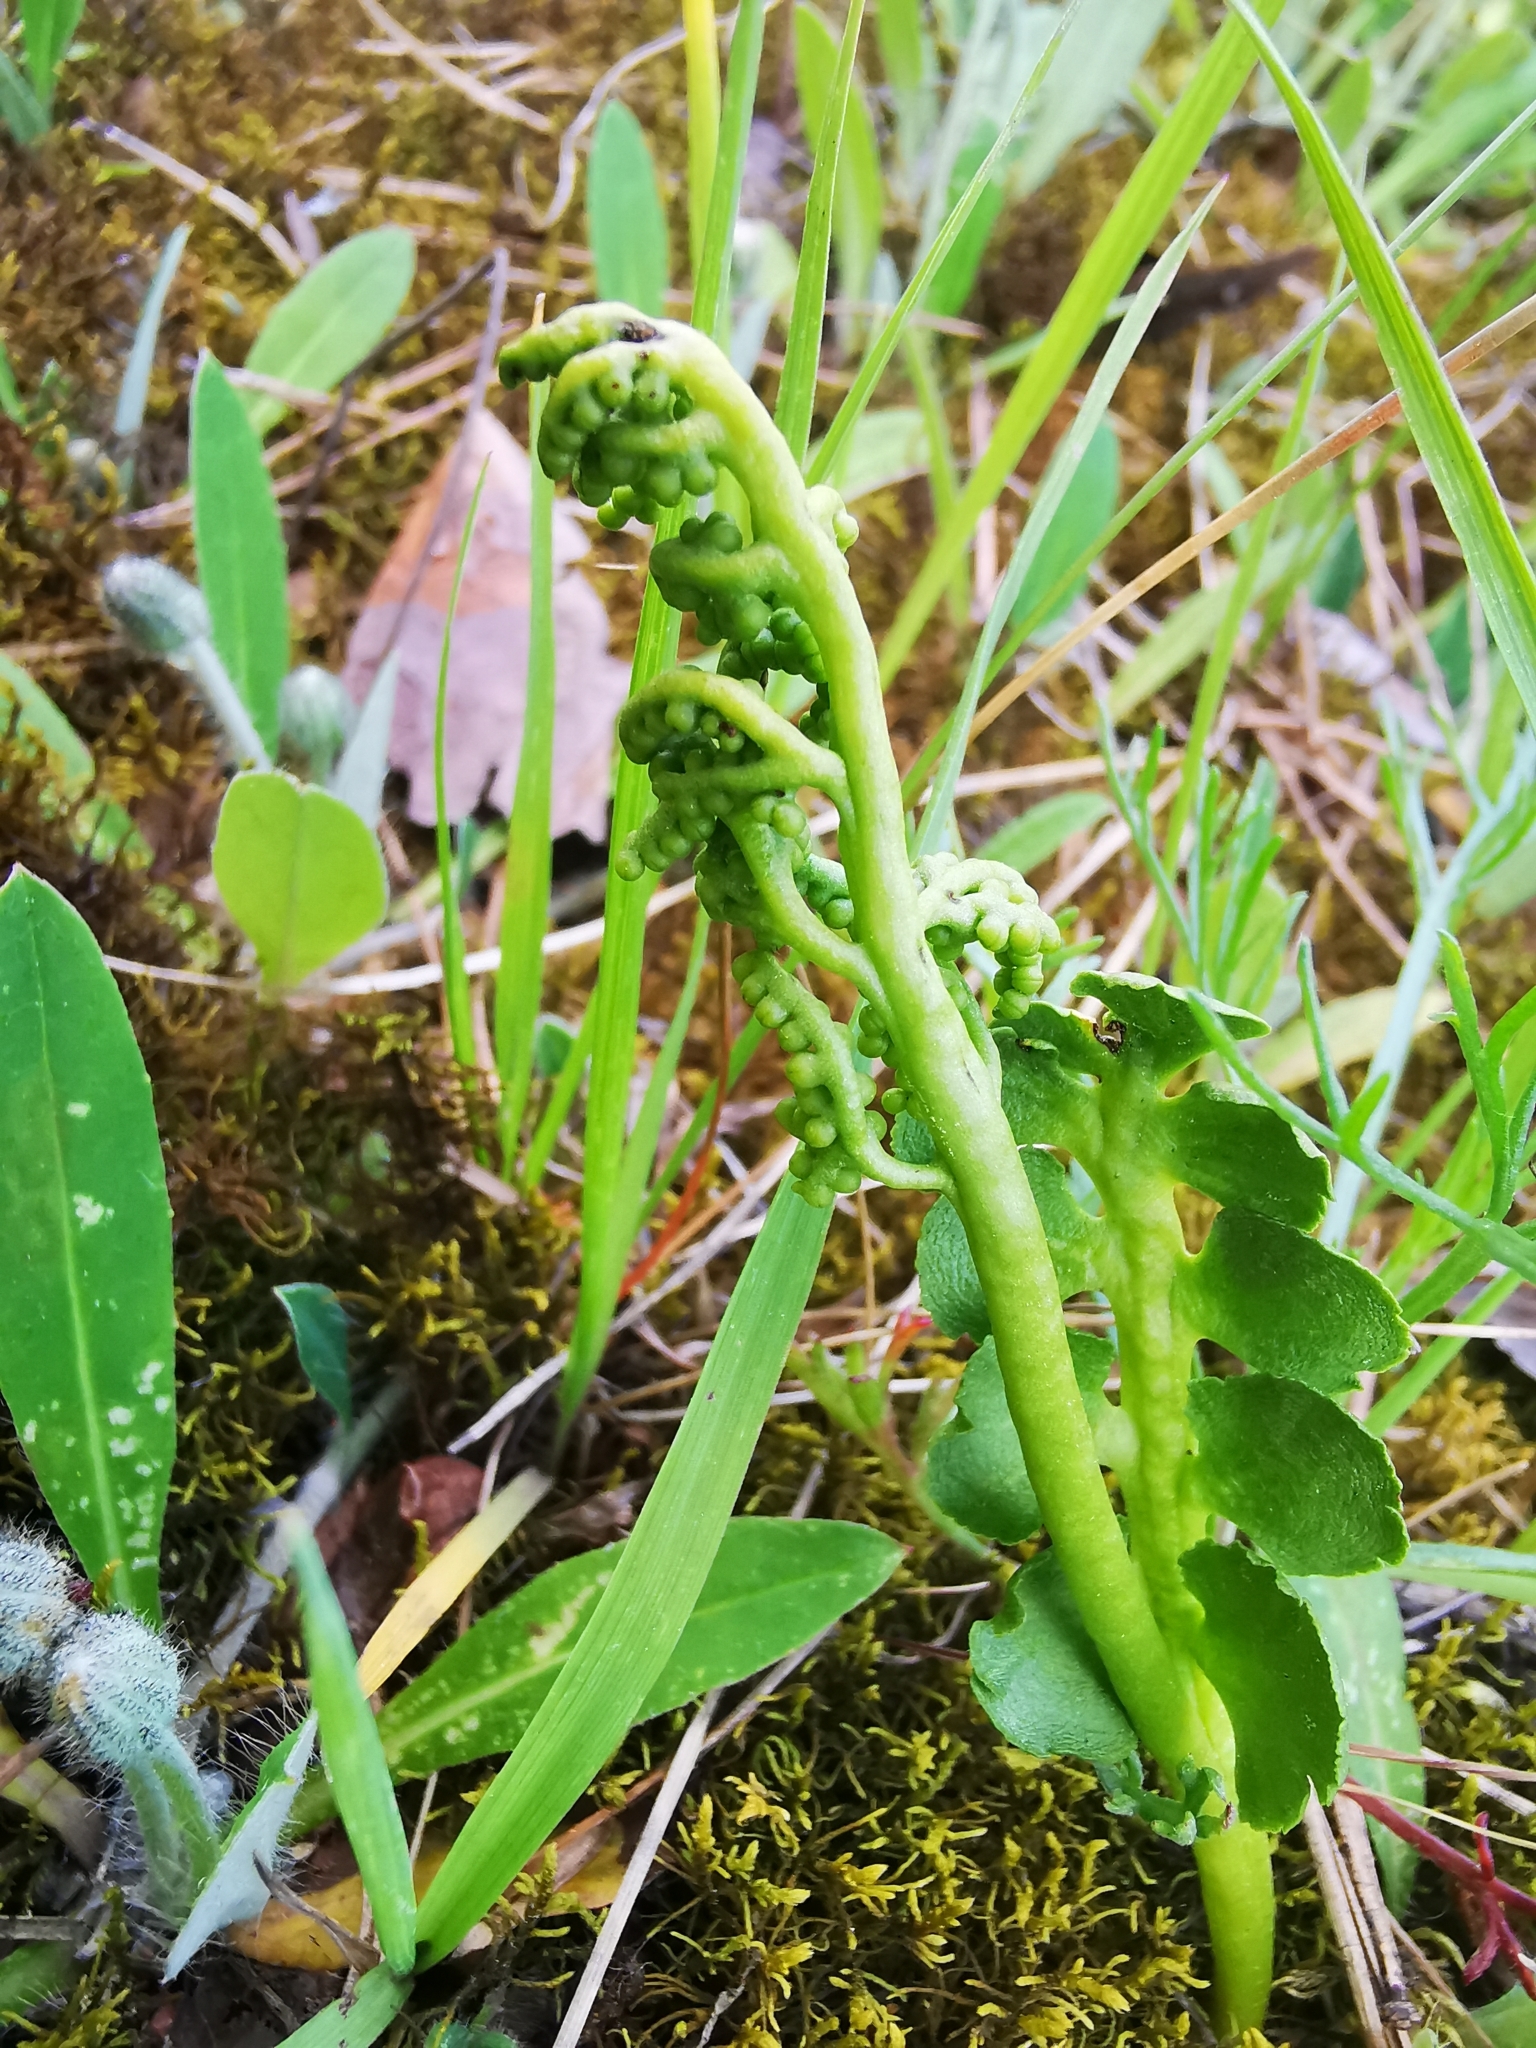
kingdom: Plantae
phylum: Tracheophyta
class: Polypodiopsida
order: Ophioglossales
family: Ophioglossaceae
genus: Botrychium
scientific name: Botrychium lunaria
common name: Moonwort
